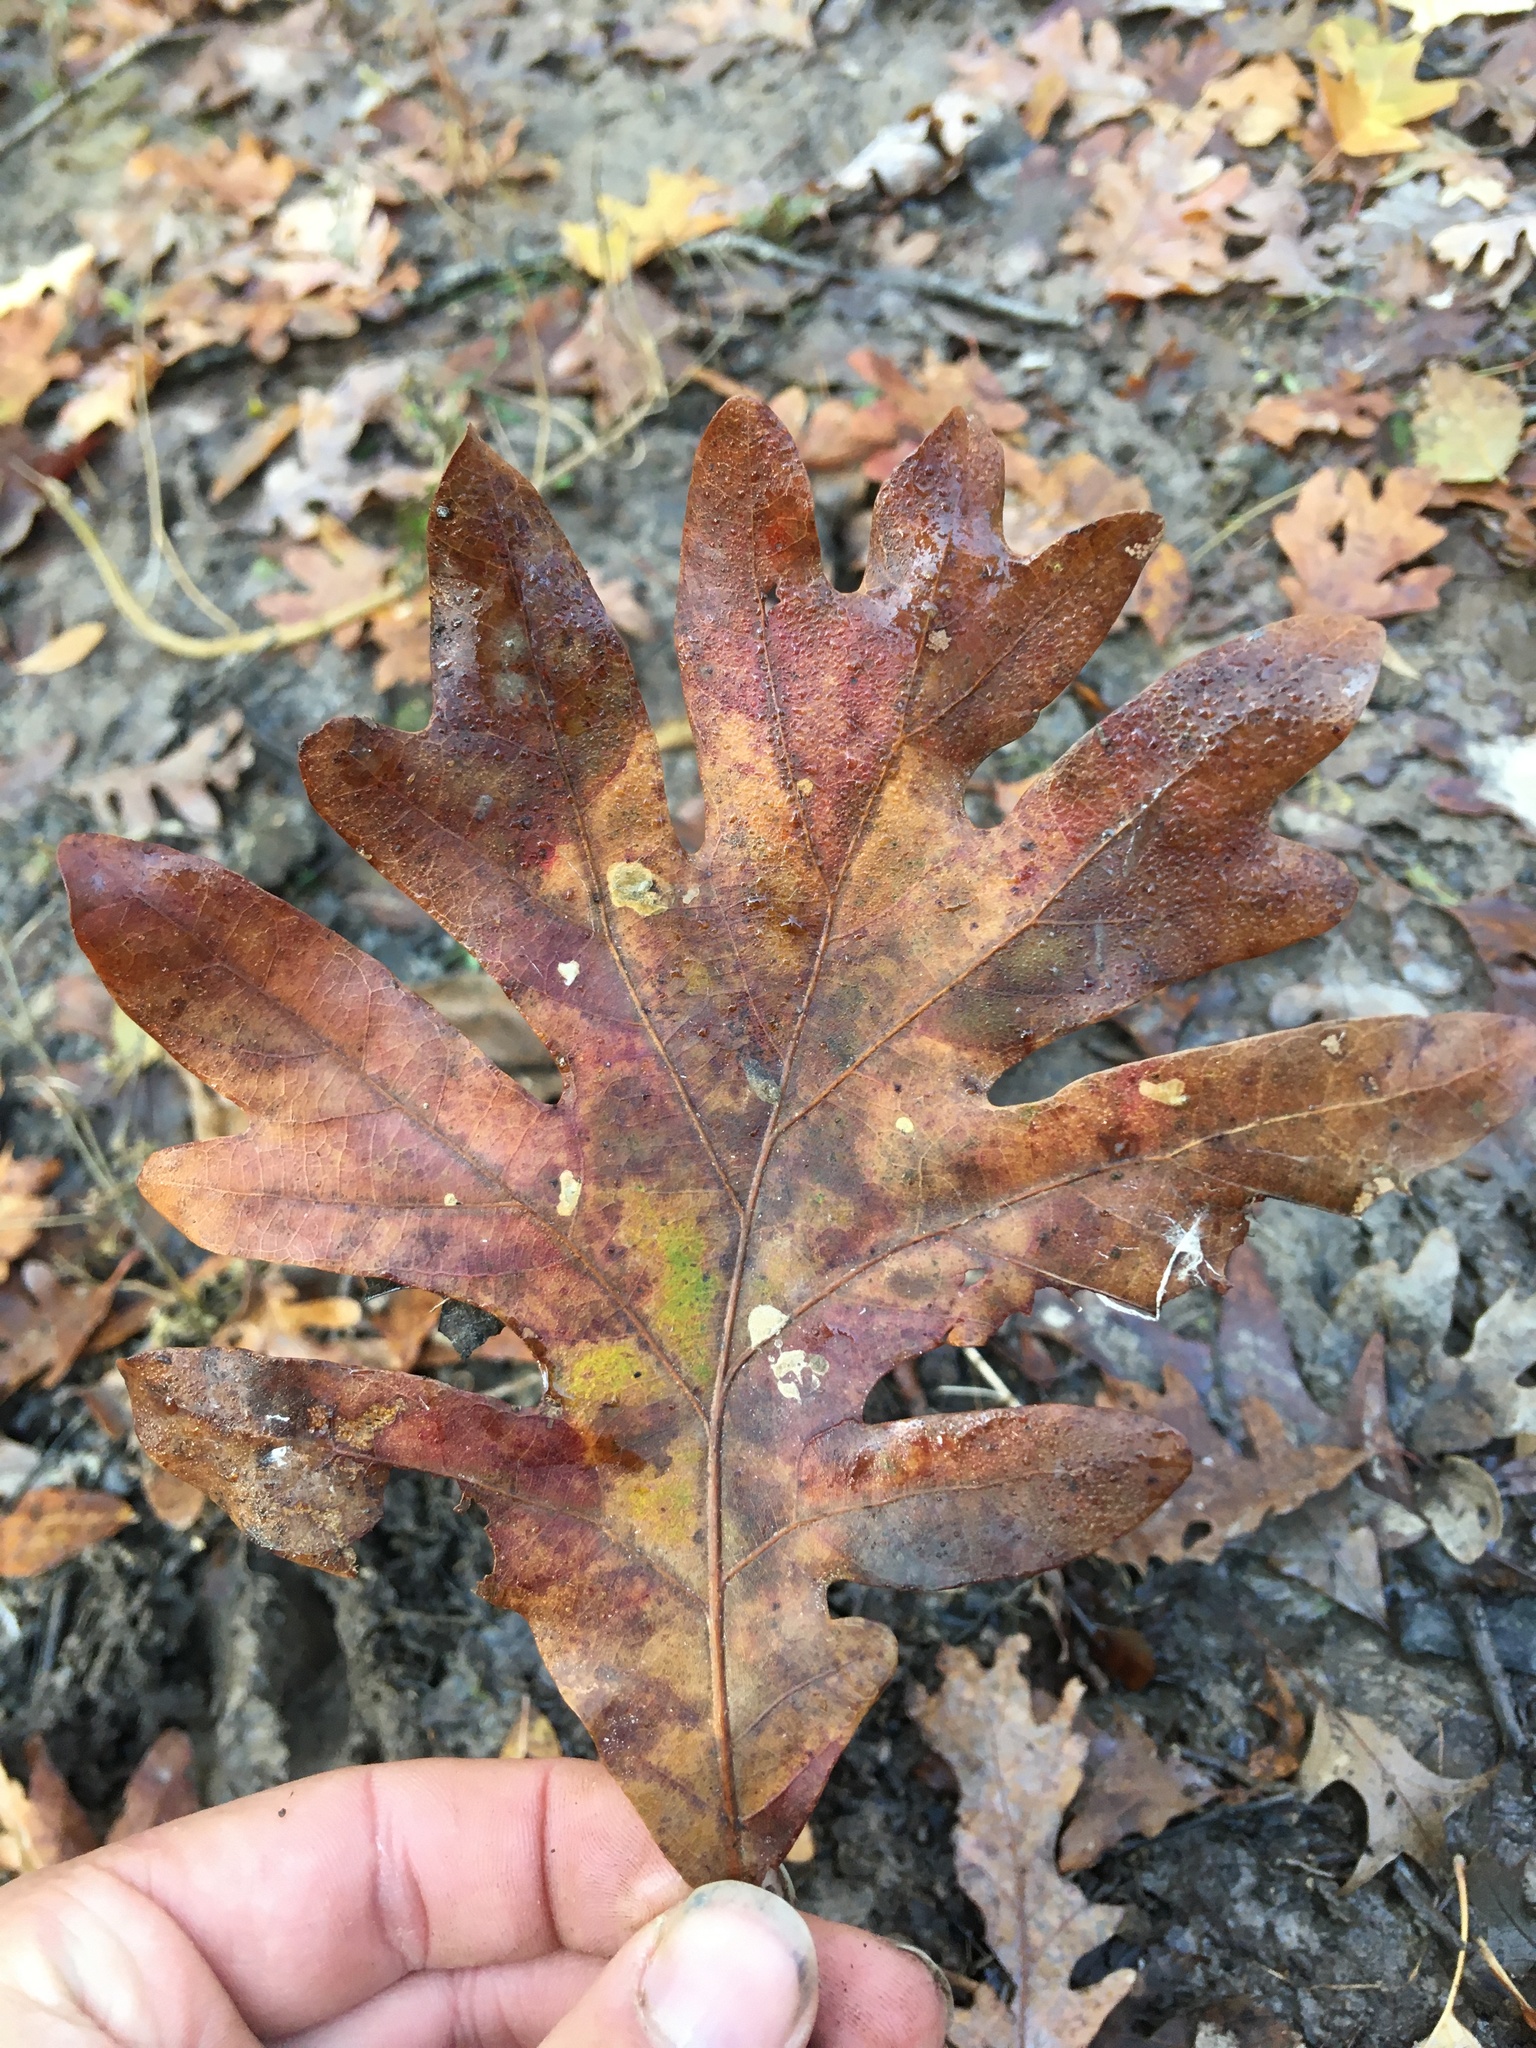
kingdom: Plantae
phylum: Tracheophyta
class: Magnoliopsida
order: Fagales
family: Fagaceae
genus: Quercus
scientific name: Quercus alba
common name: White oak
